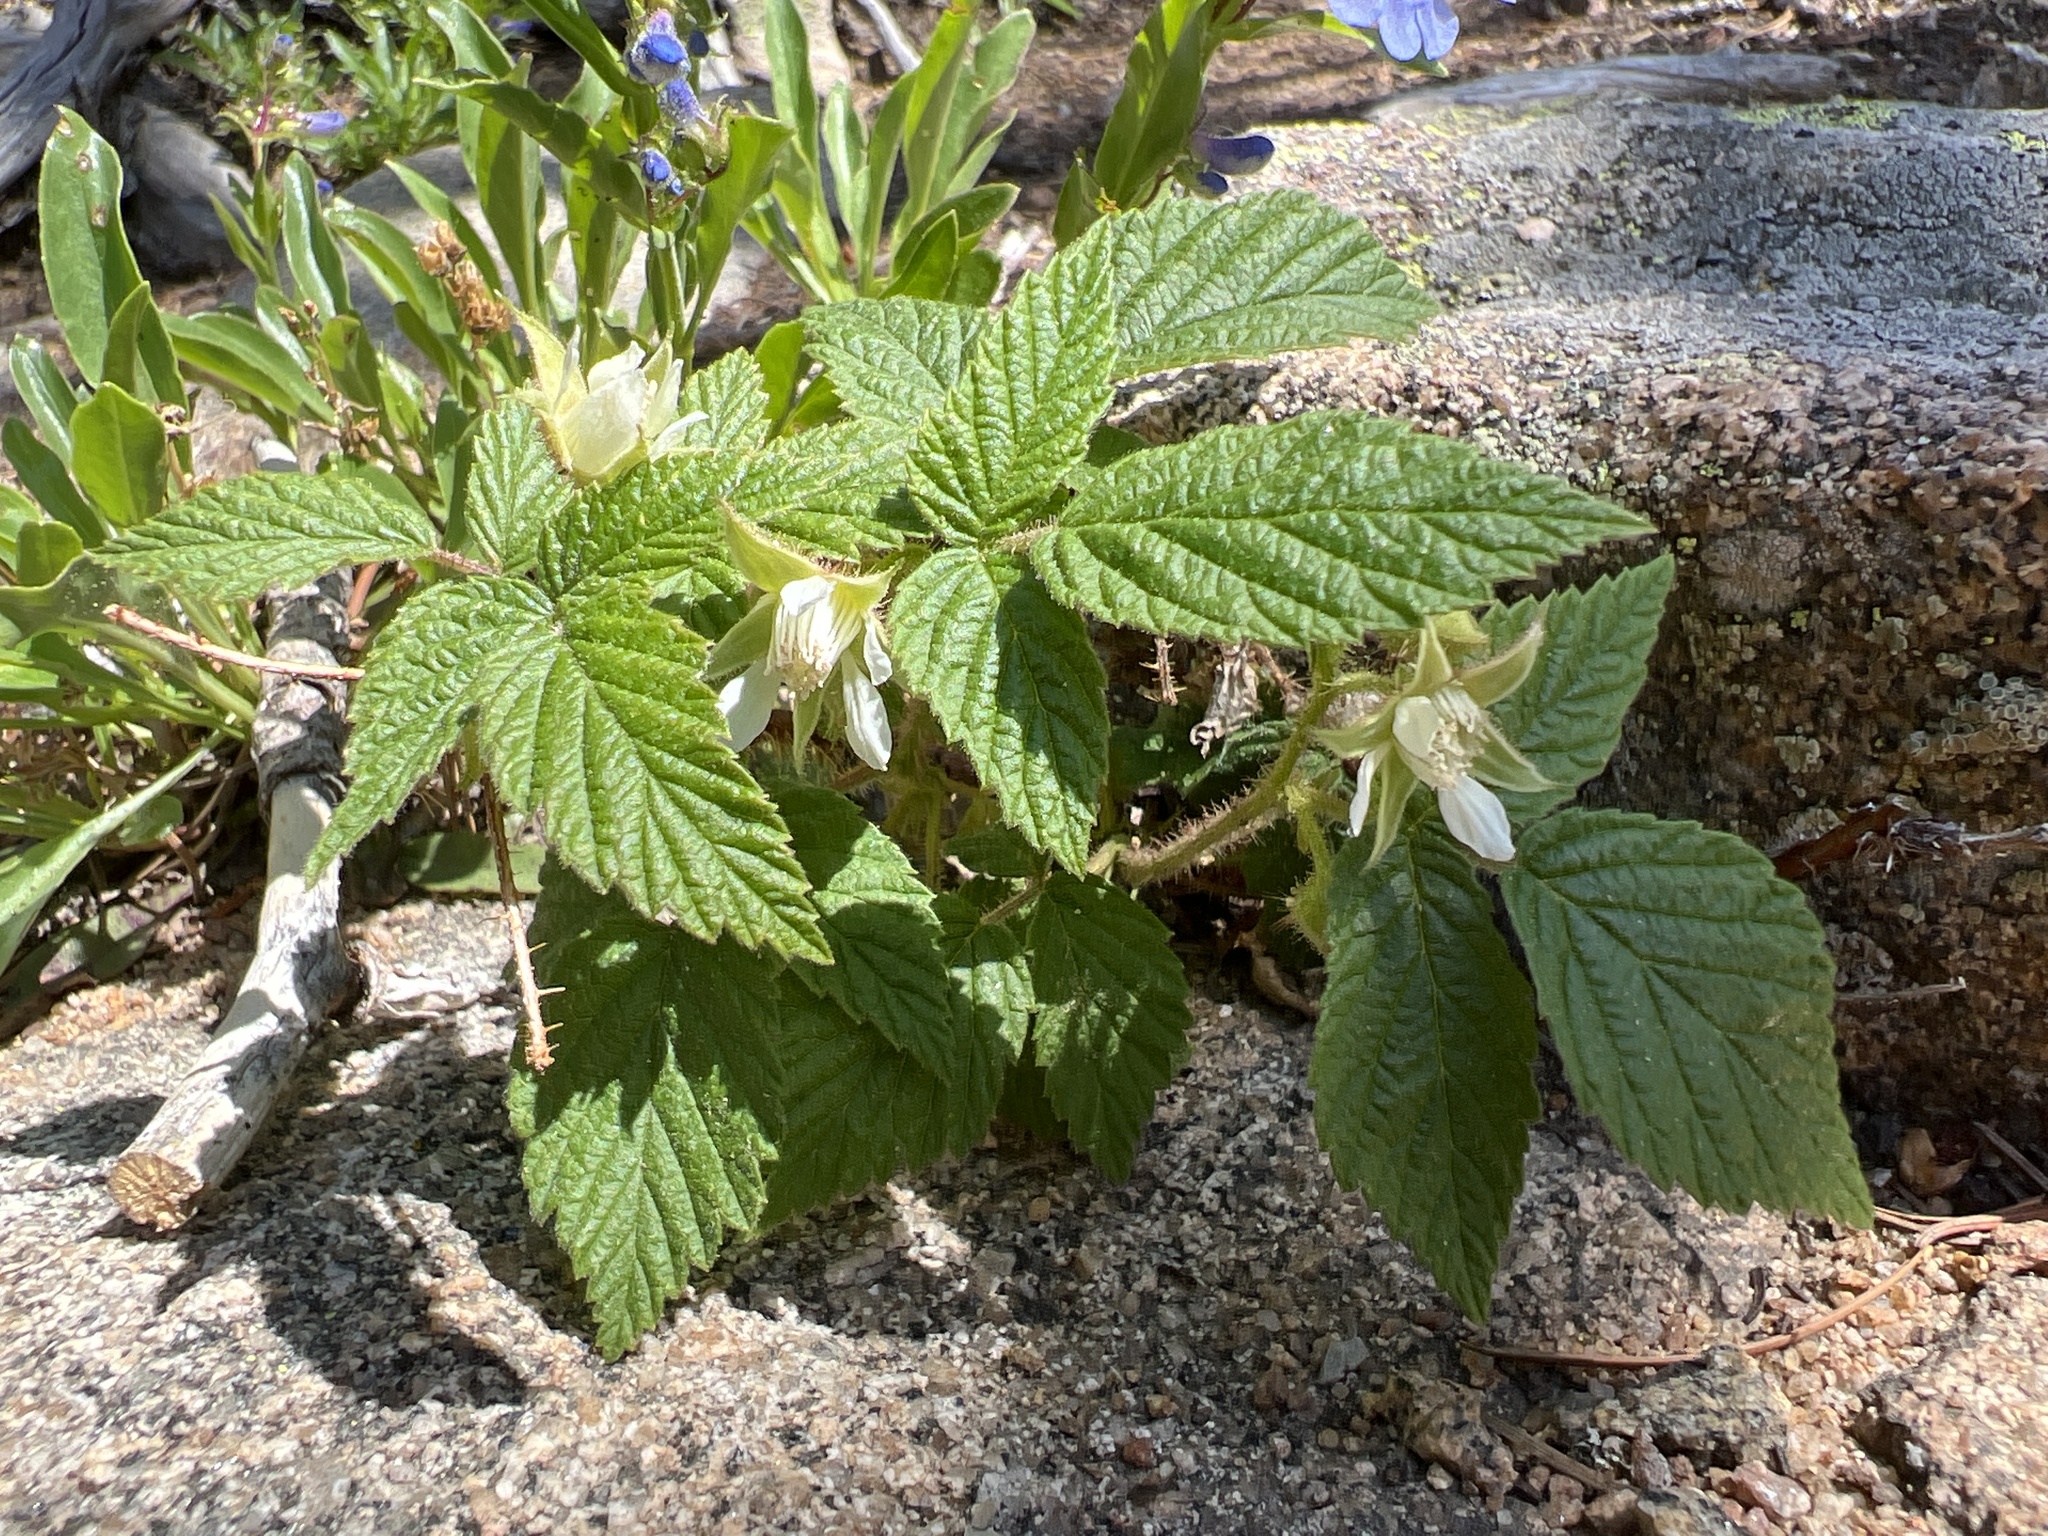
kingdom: Plantae
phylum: Tracheophyta
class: Magnoliopsida
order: Rosales
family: Rosaceae
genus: Rubus
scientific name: Rubus idaeus
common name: Raspberry
